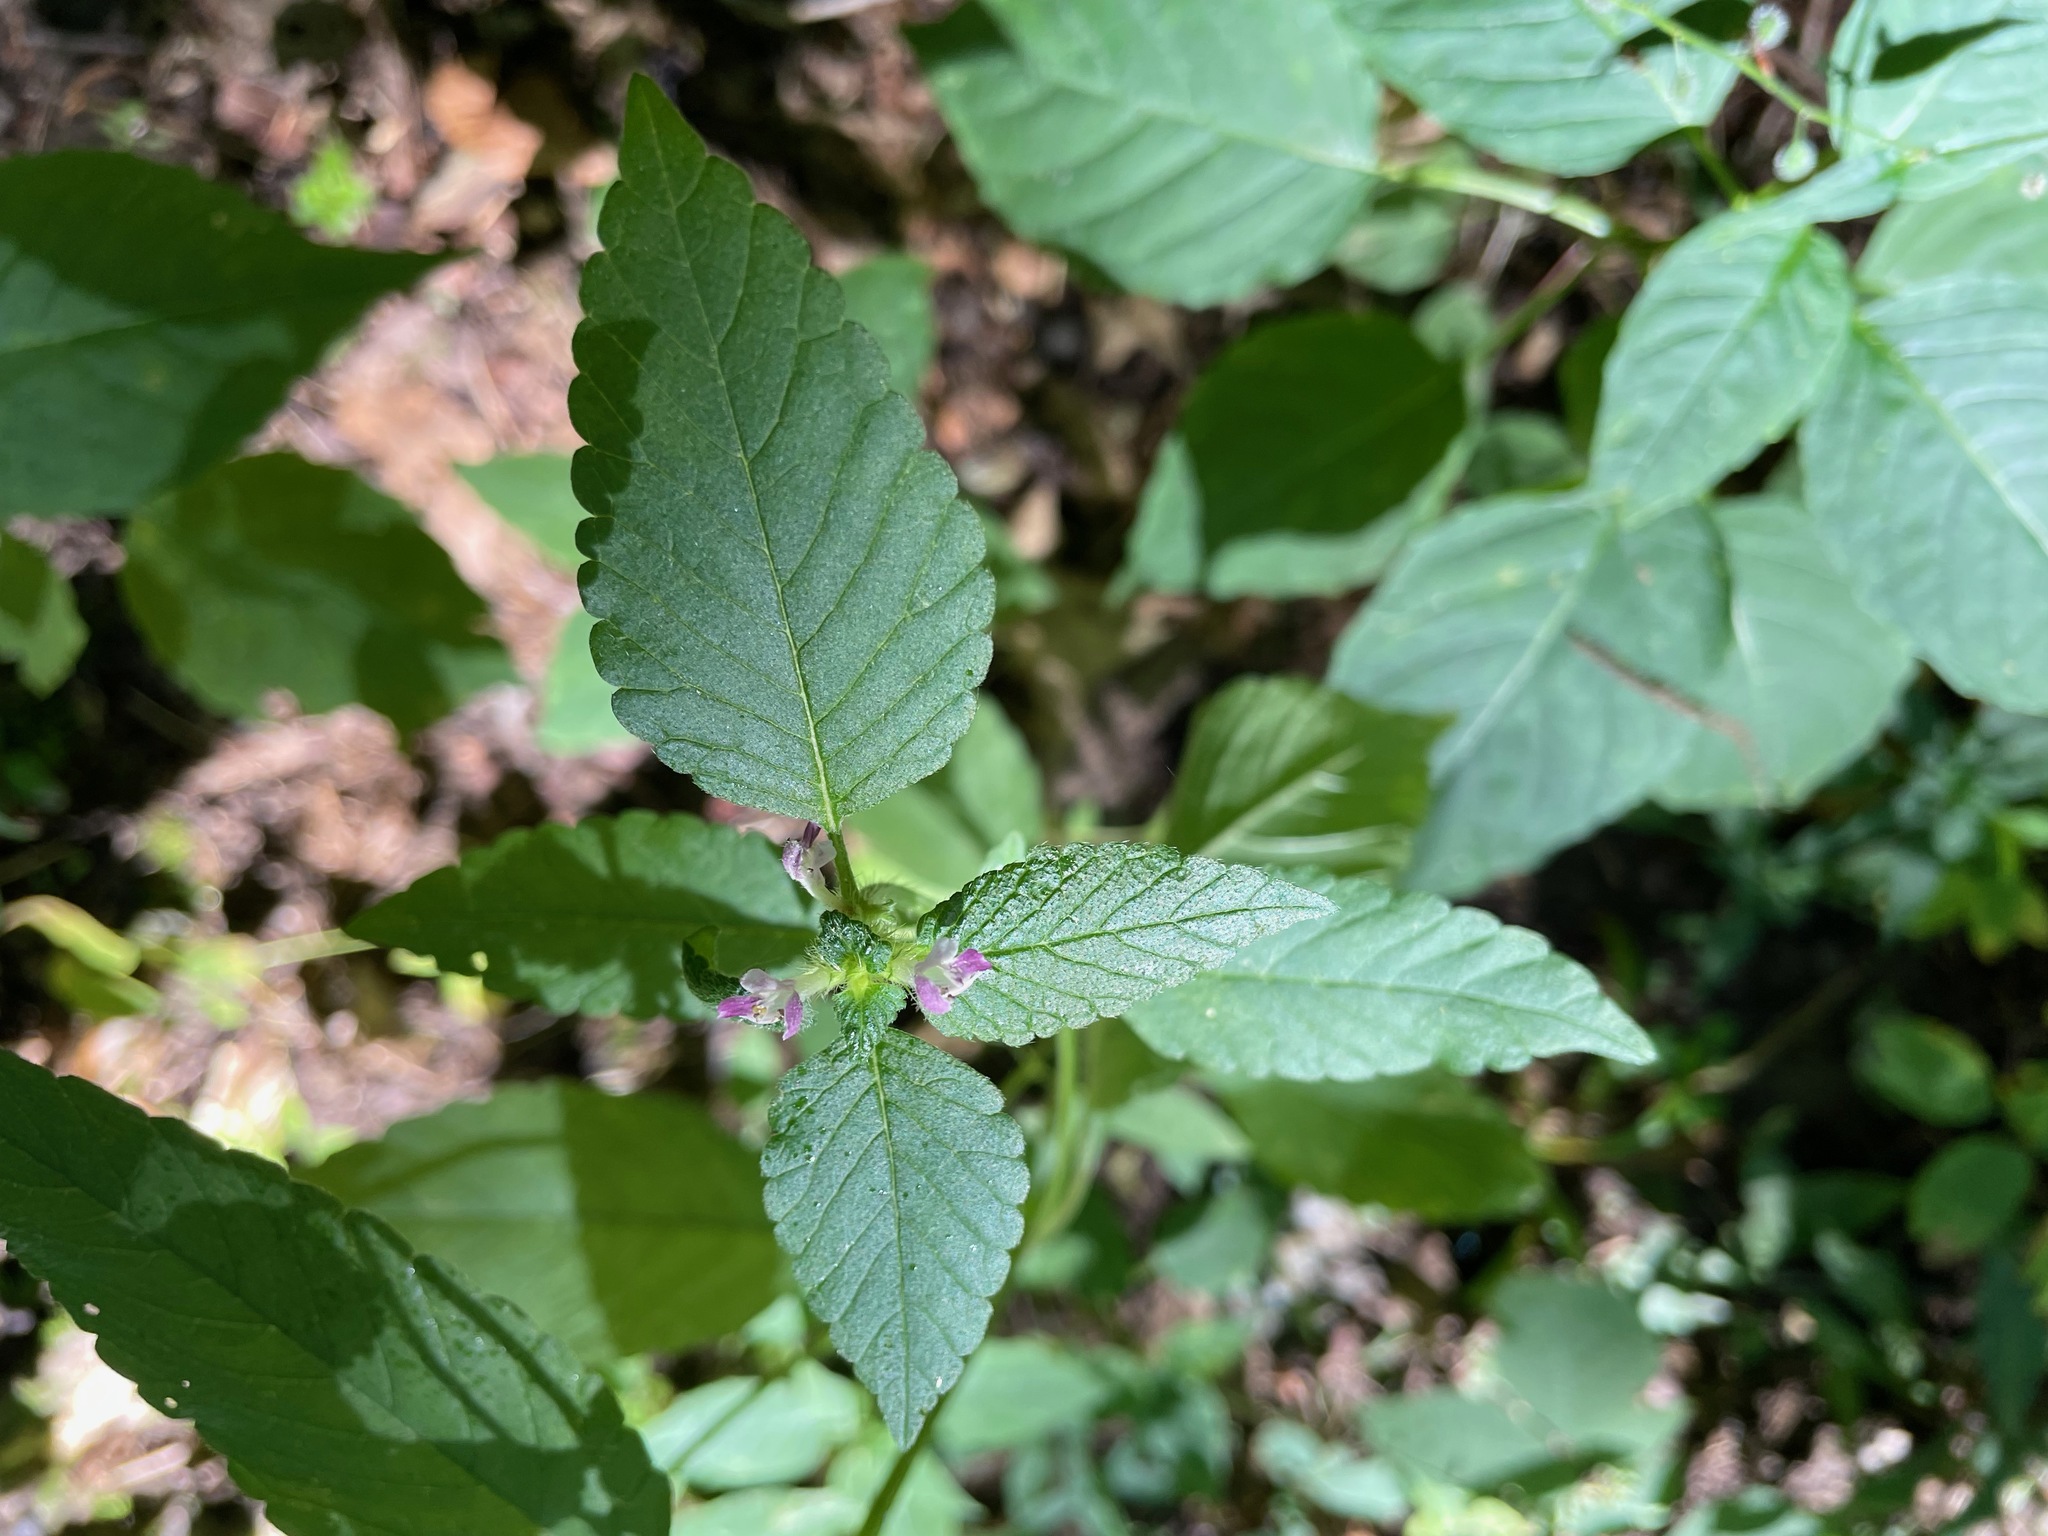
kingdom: Plantae
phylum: Tracheophyta
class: Magnoliopsida
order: Lamiales
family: Lamiaceae
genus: Galeopsis
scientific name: Galeopsis bifida
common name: Bifid hemp-nettle
